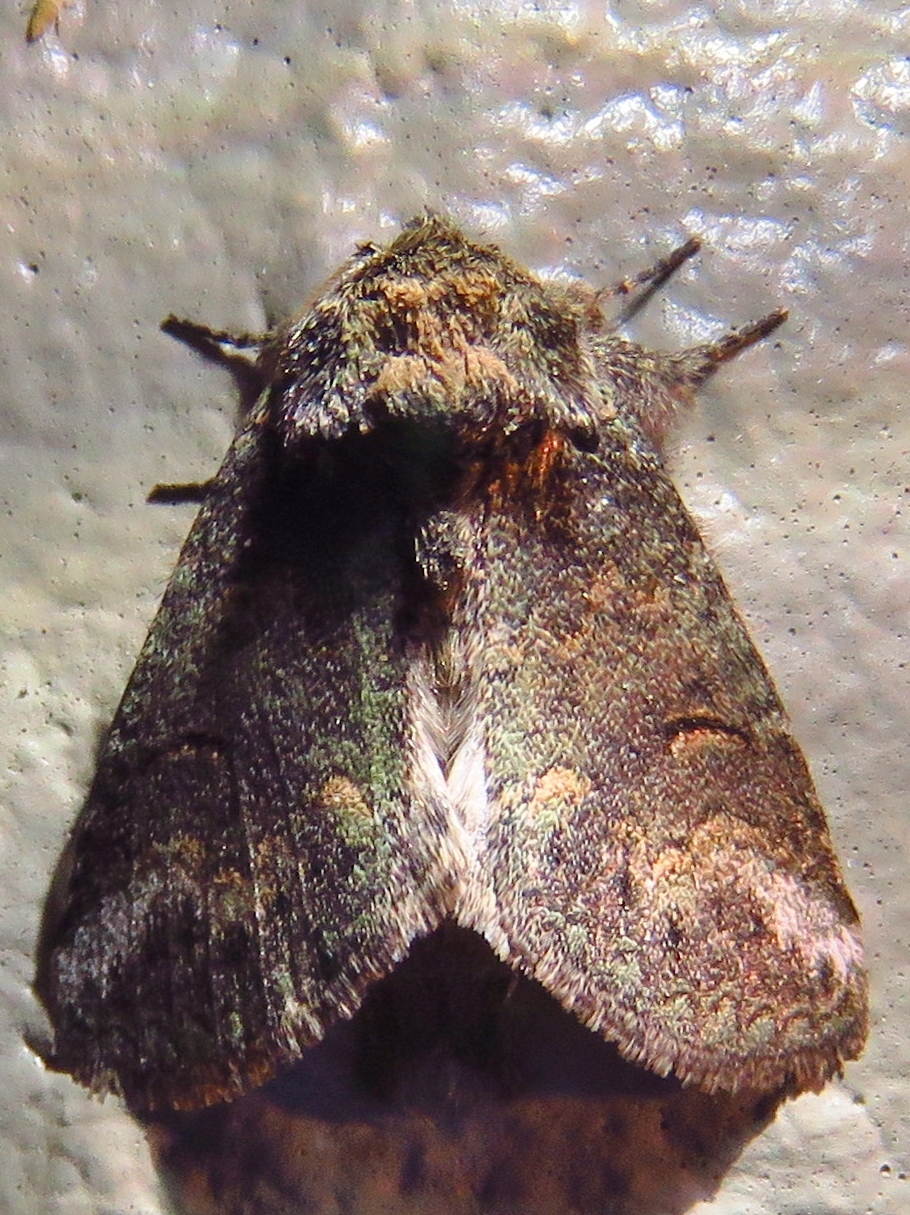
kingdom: Animalia
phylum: Arthropoda
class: Insecta
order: Lepidoptera
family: Notodontidae
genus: Rifargia
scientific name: Rifargia
